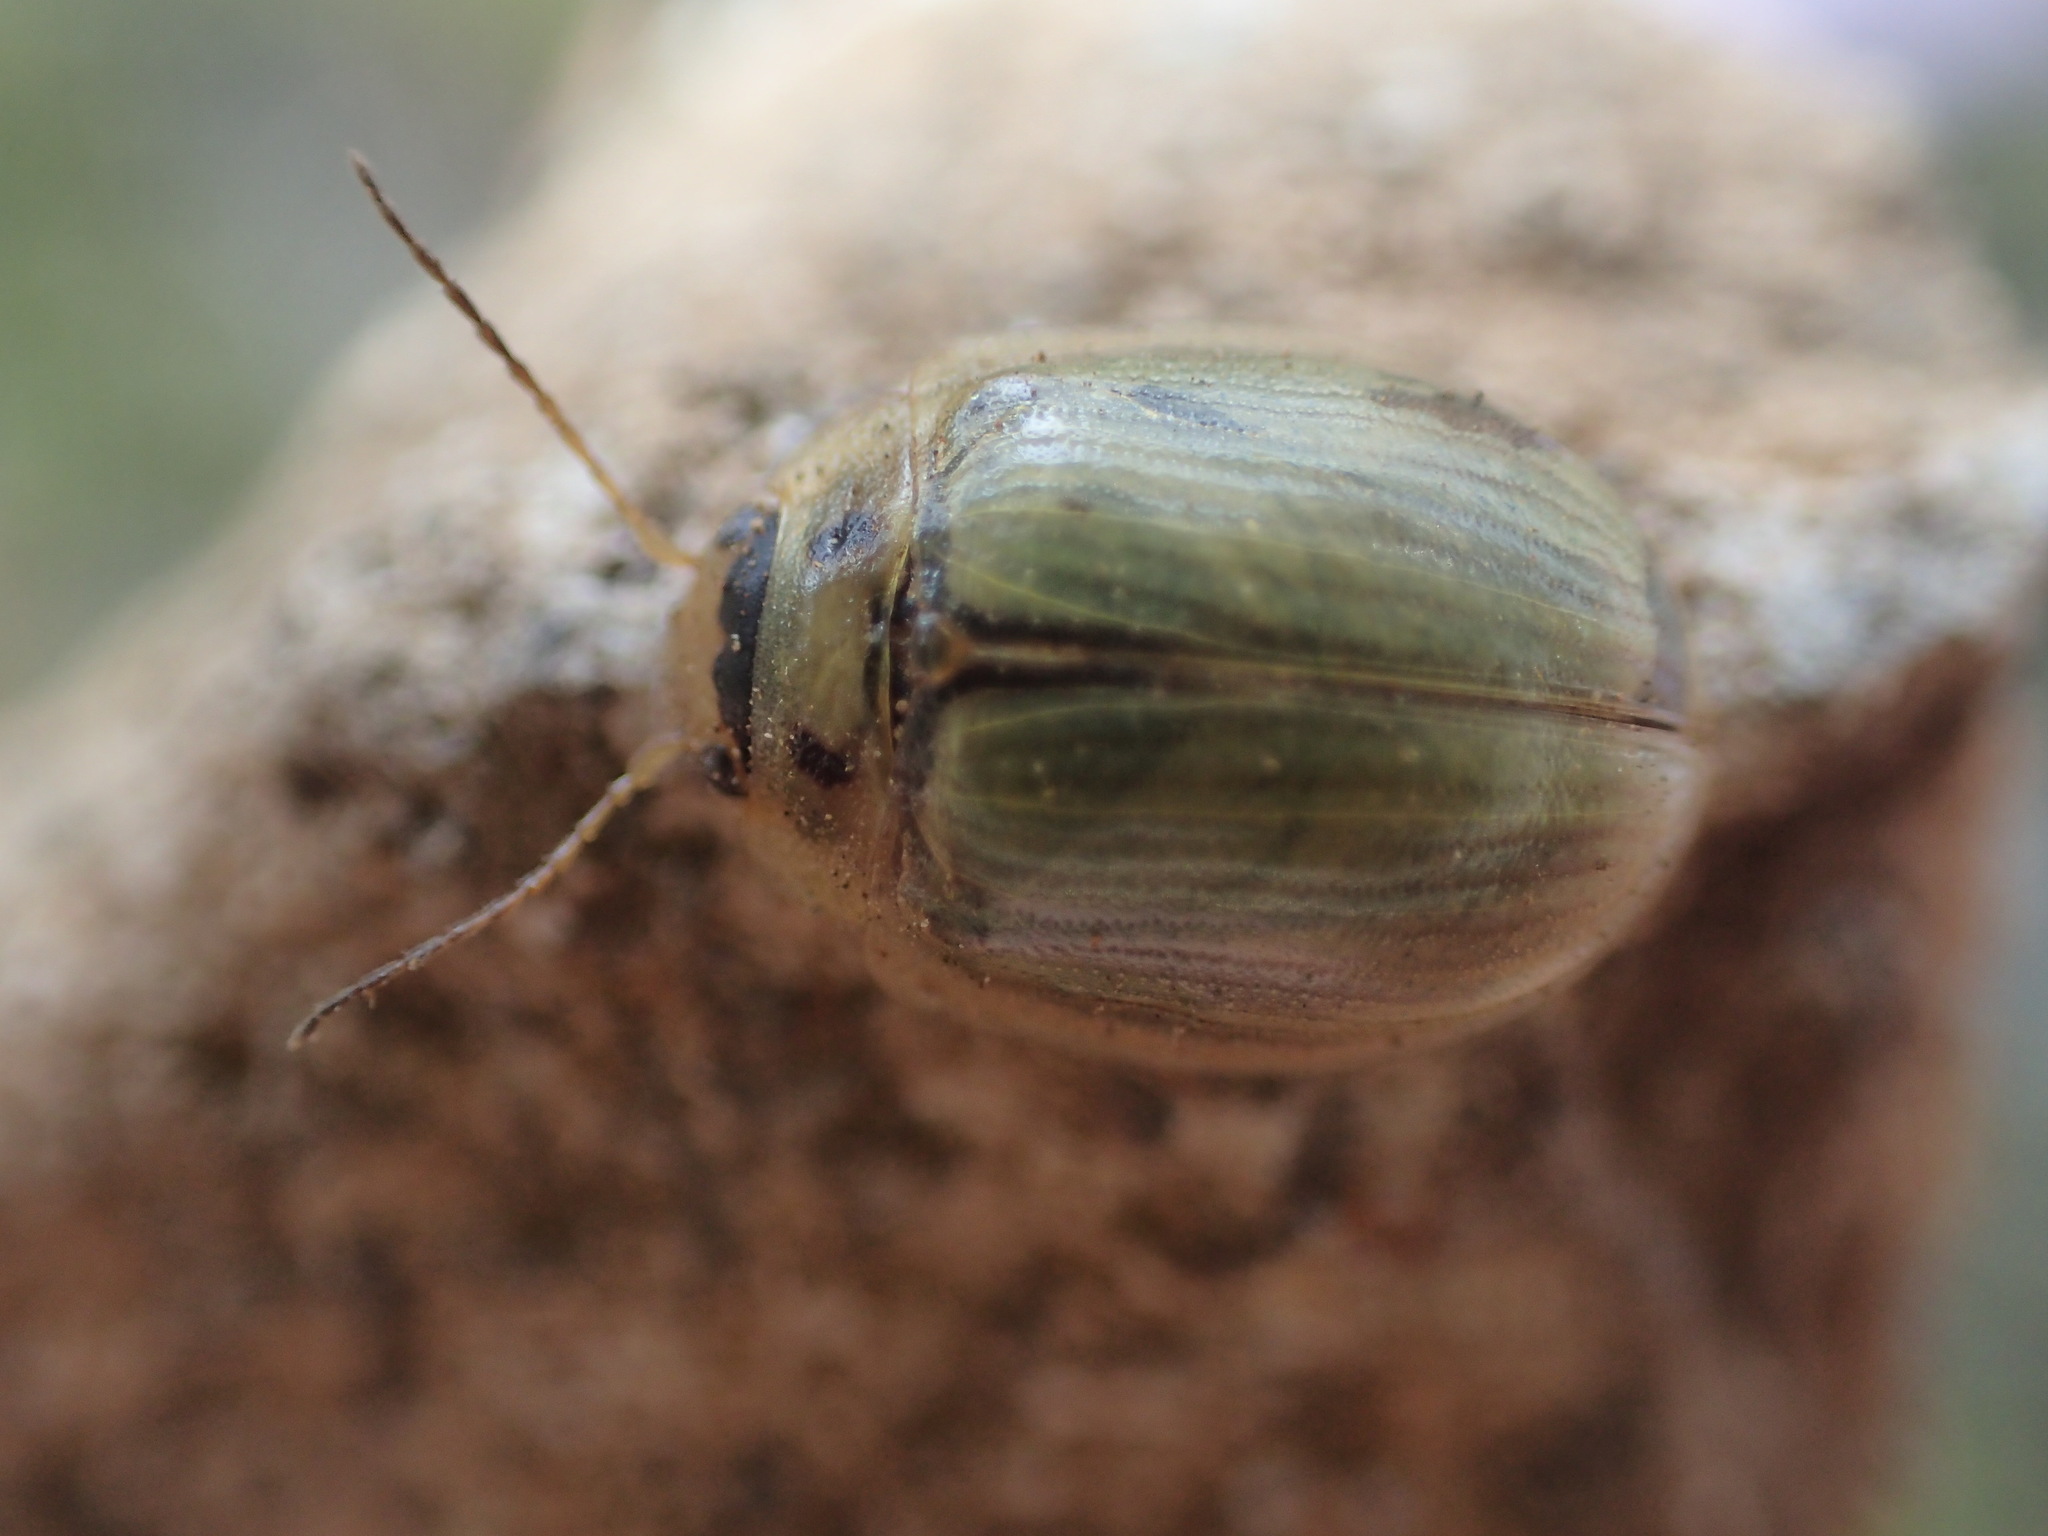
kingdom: Animalia
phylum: Arthropoda
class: Insecta
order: Coleoptera
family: Chrysomelidae
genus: Paropsisterna
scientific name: Paropsisterna bimaculata
